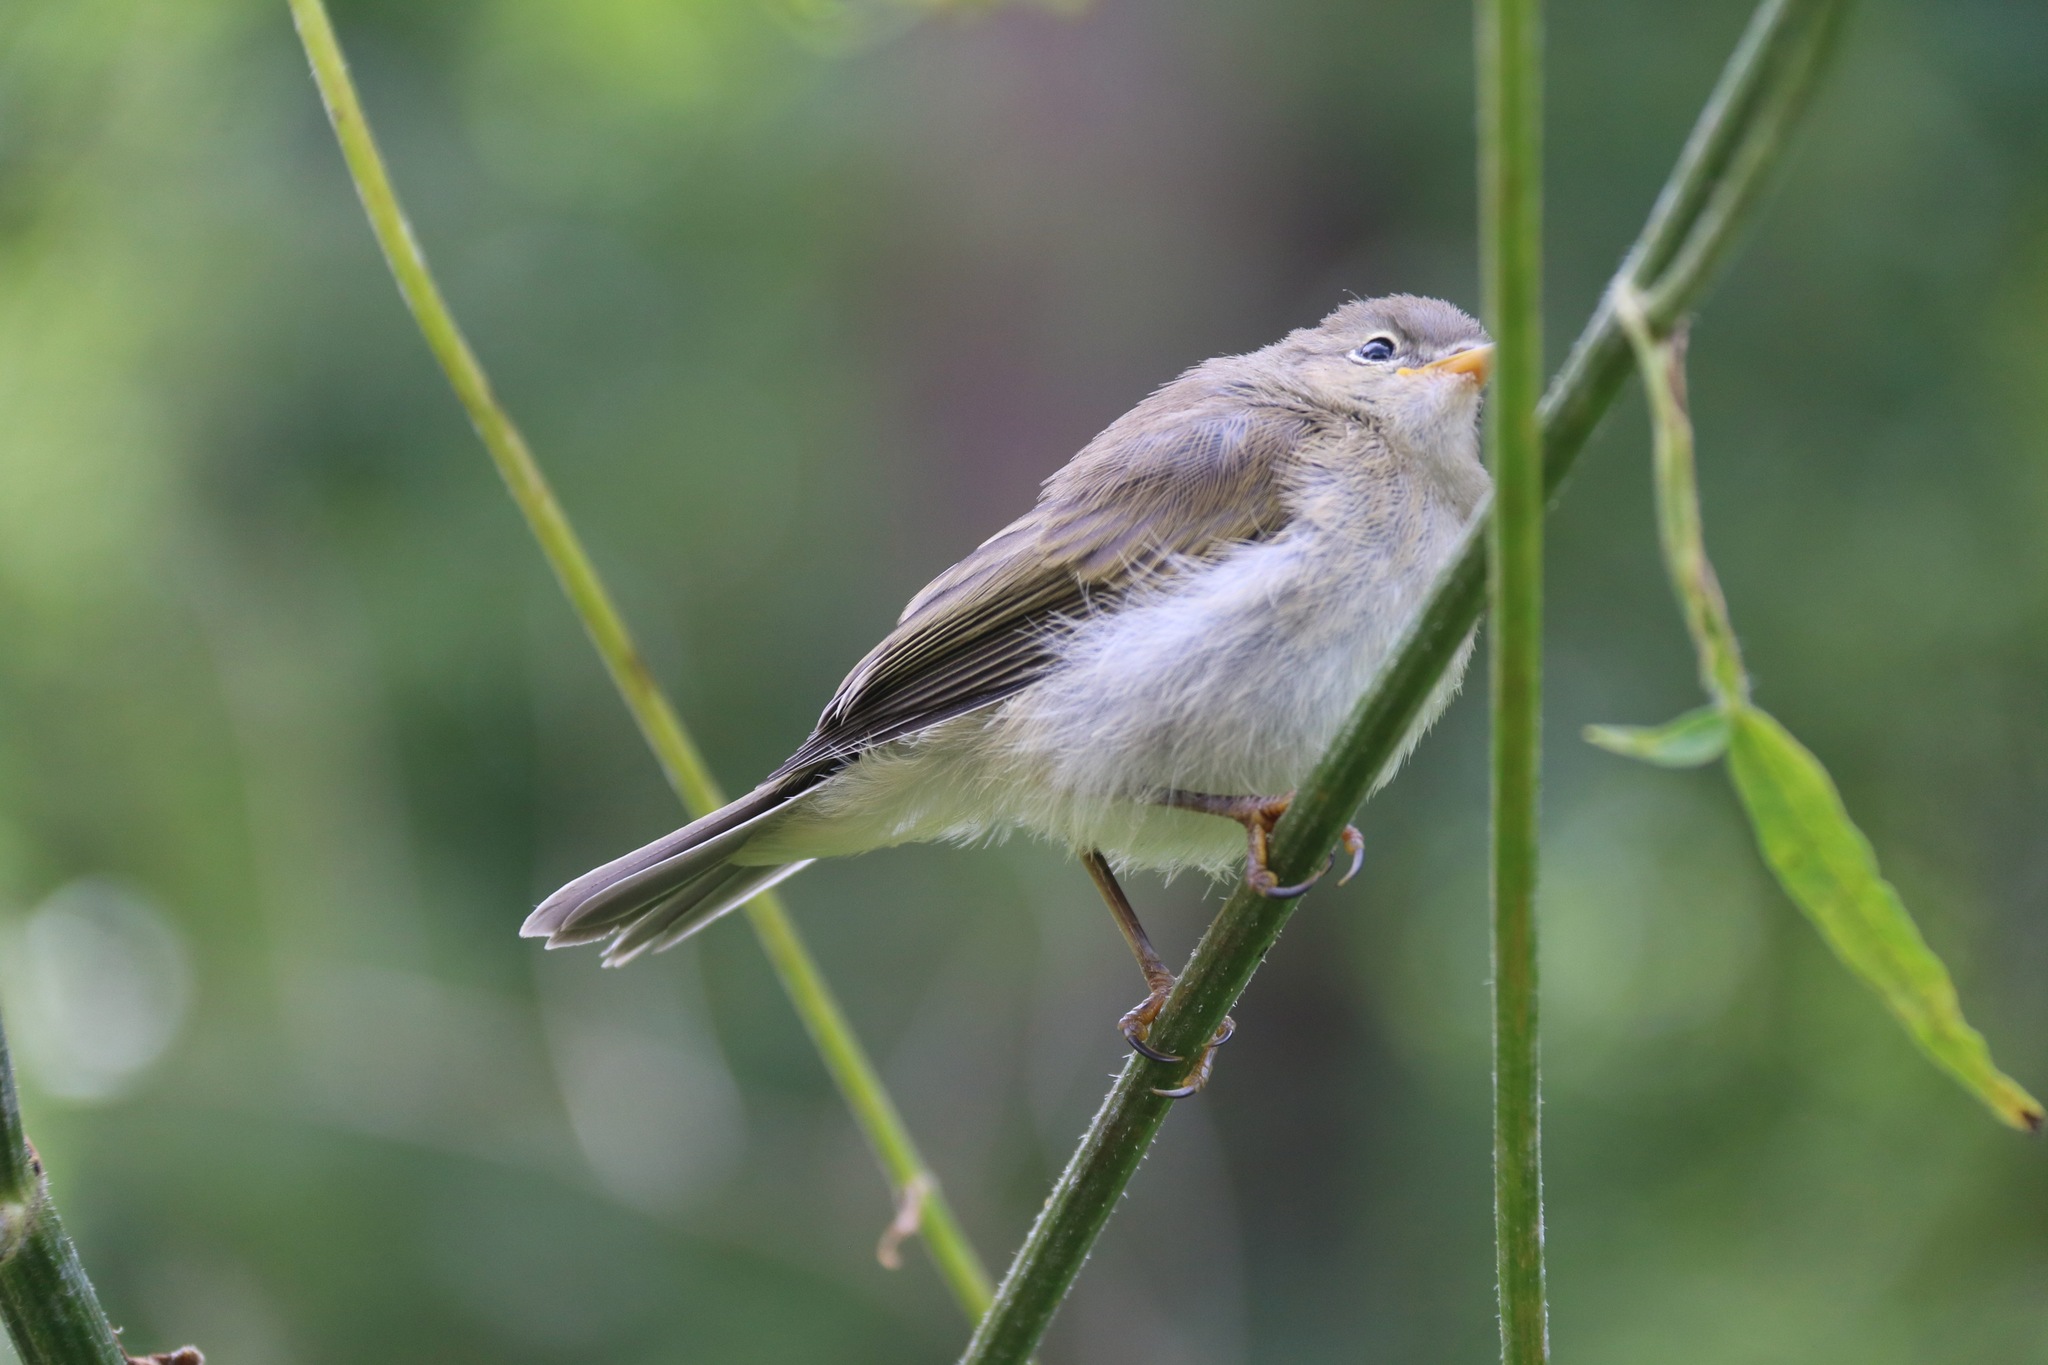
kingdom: Animalia
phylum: Chordata
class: Aves
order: Passeriformes
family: Phylloscopidae
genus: Phylloscopus
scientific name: Phylloscopus trochilus
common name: Willow warbler
